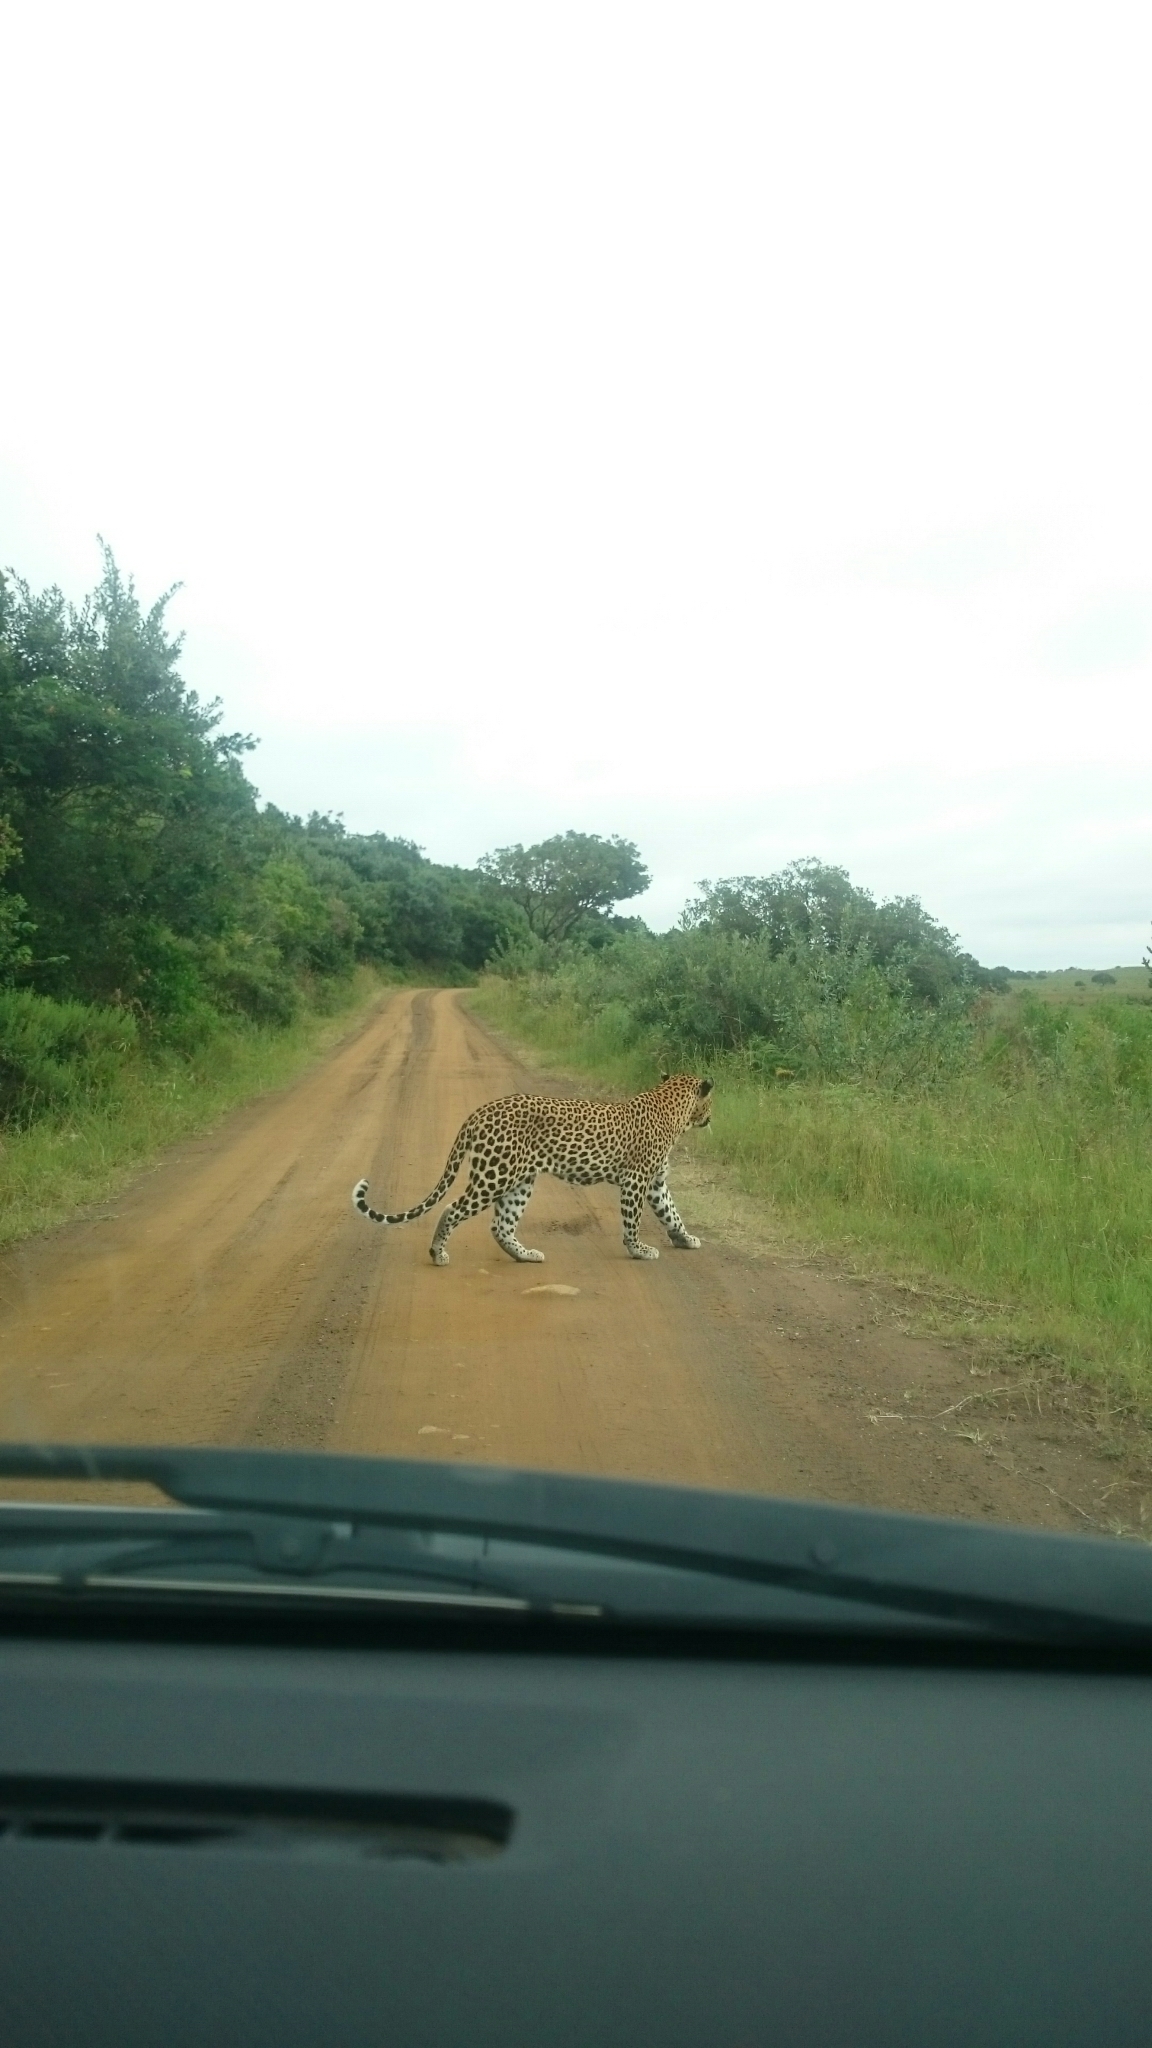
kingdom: Animalia
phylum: Chordata
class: Mammalia
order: Carnivora
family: Felidae
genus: Panthera
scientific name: Panthera pardus
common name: Leopard
